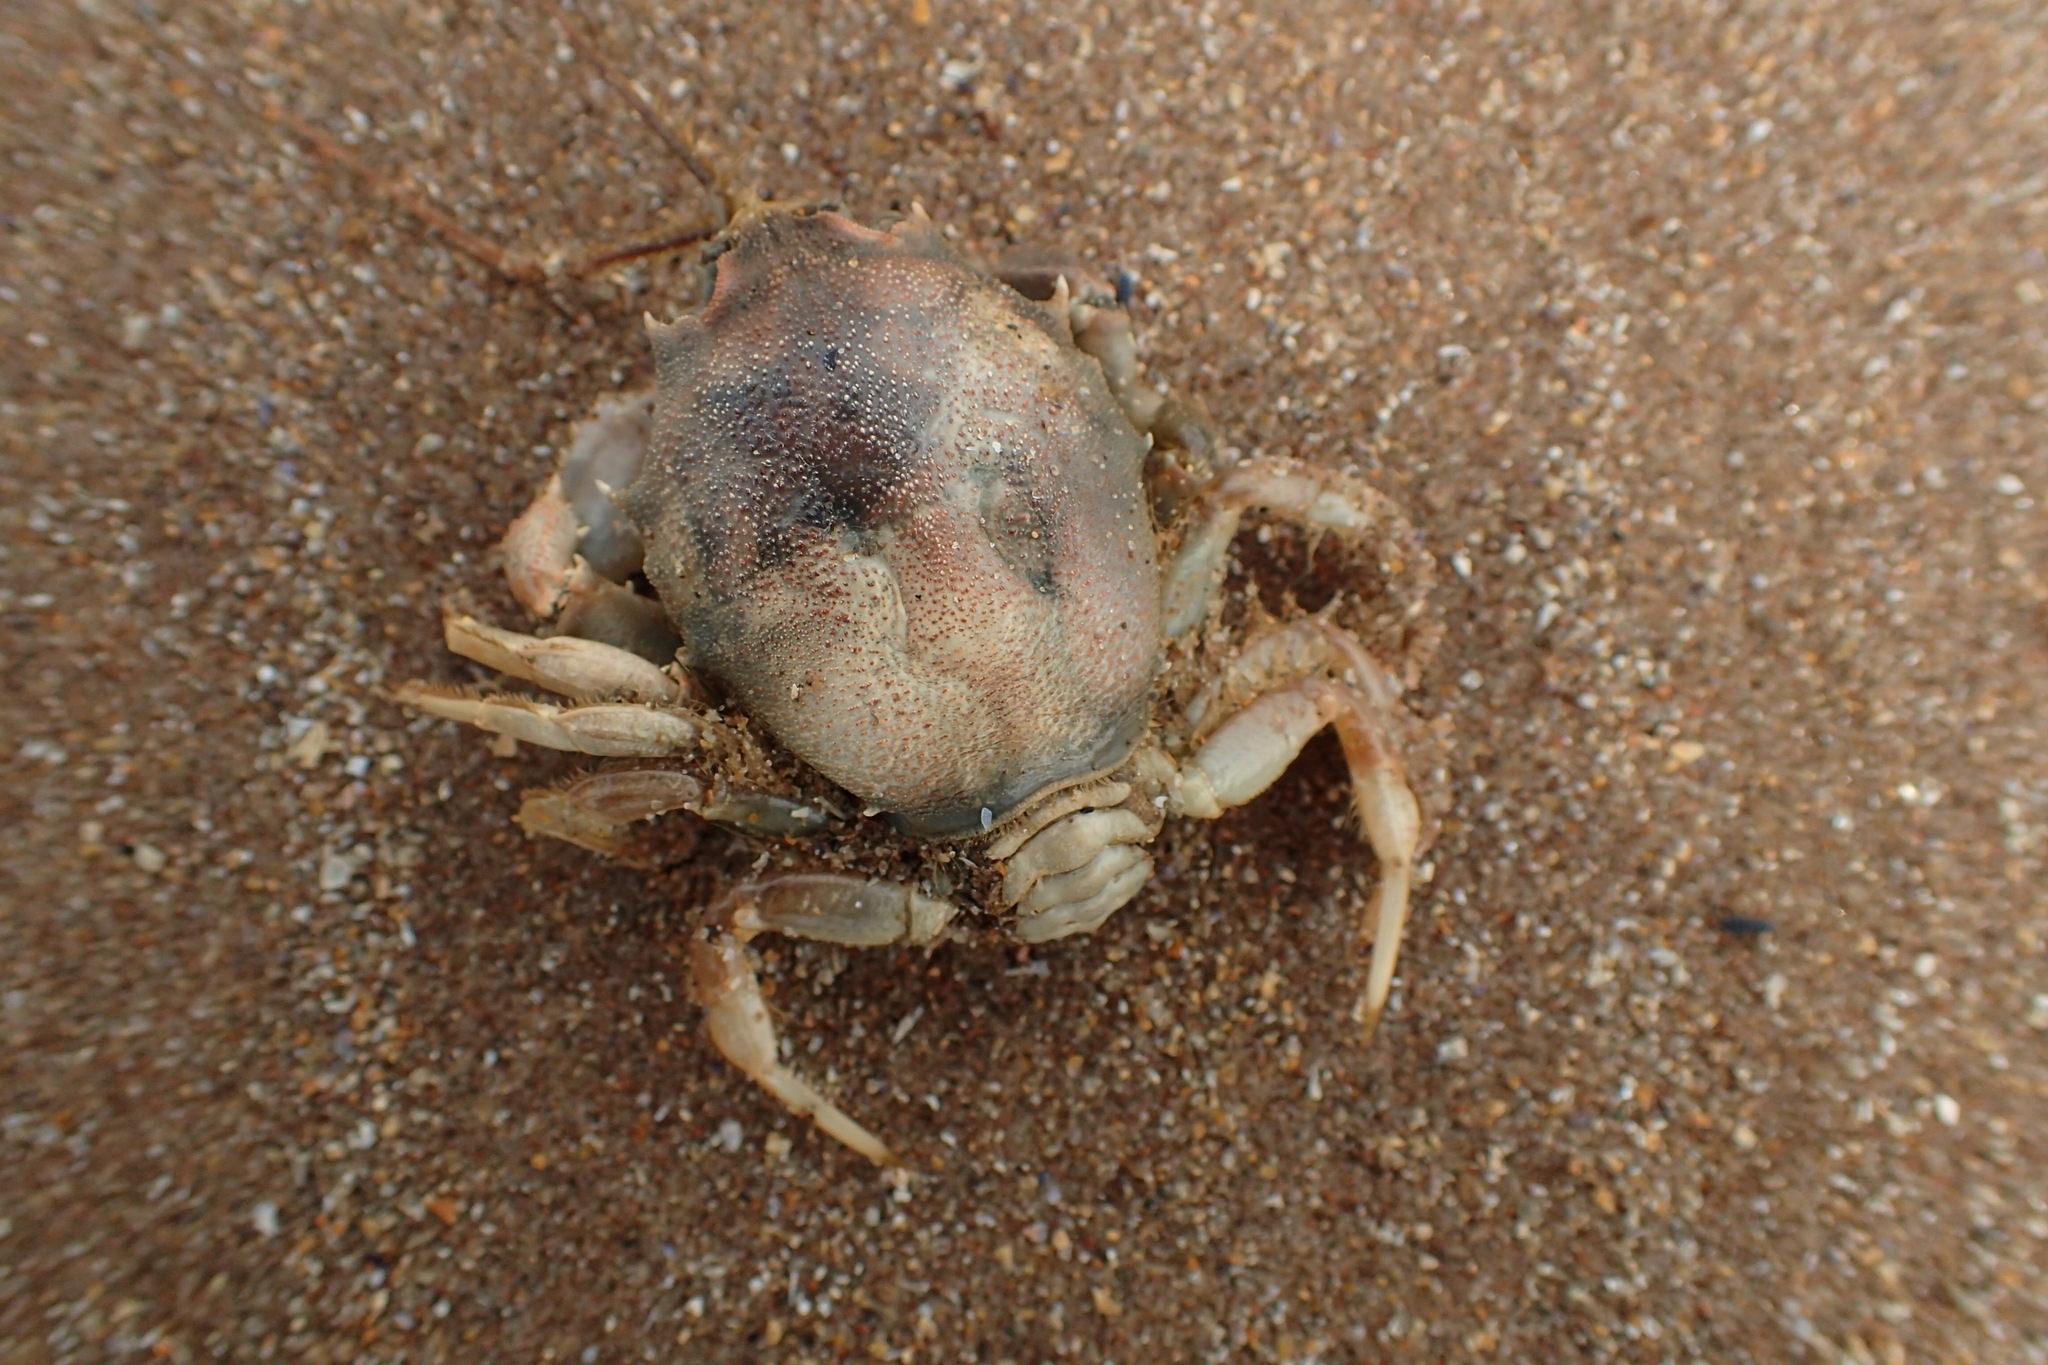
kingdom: Animalia
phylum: Arthropoda
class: Malacostraca
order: Decapoda
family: Corystidae
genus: Corystes
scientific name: Corystes cassivelaunus
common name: Masked crab
